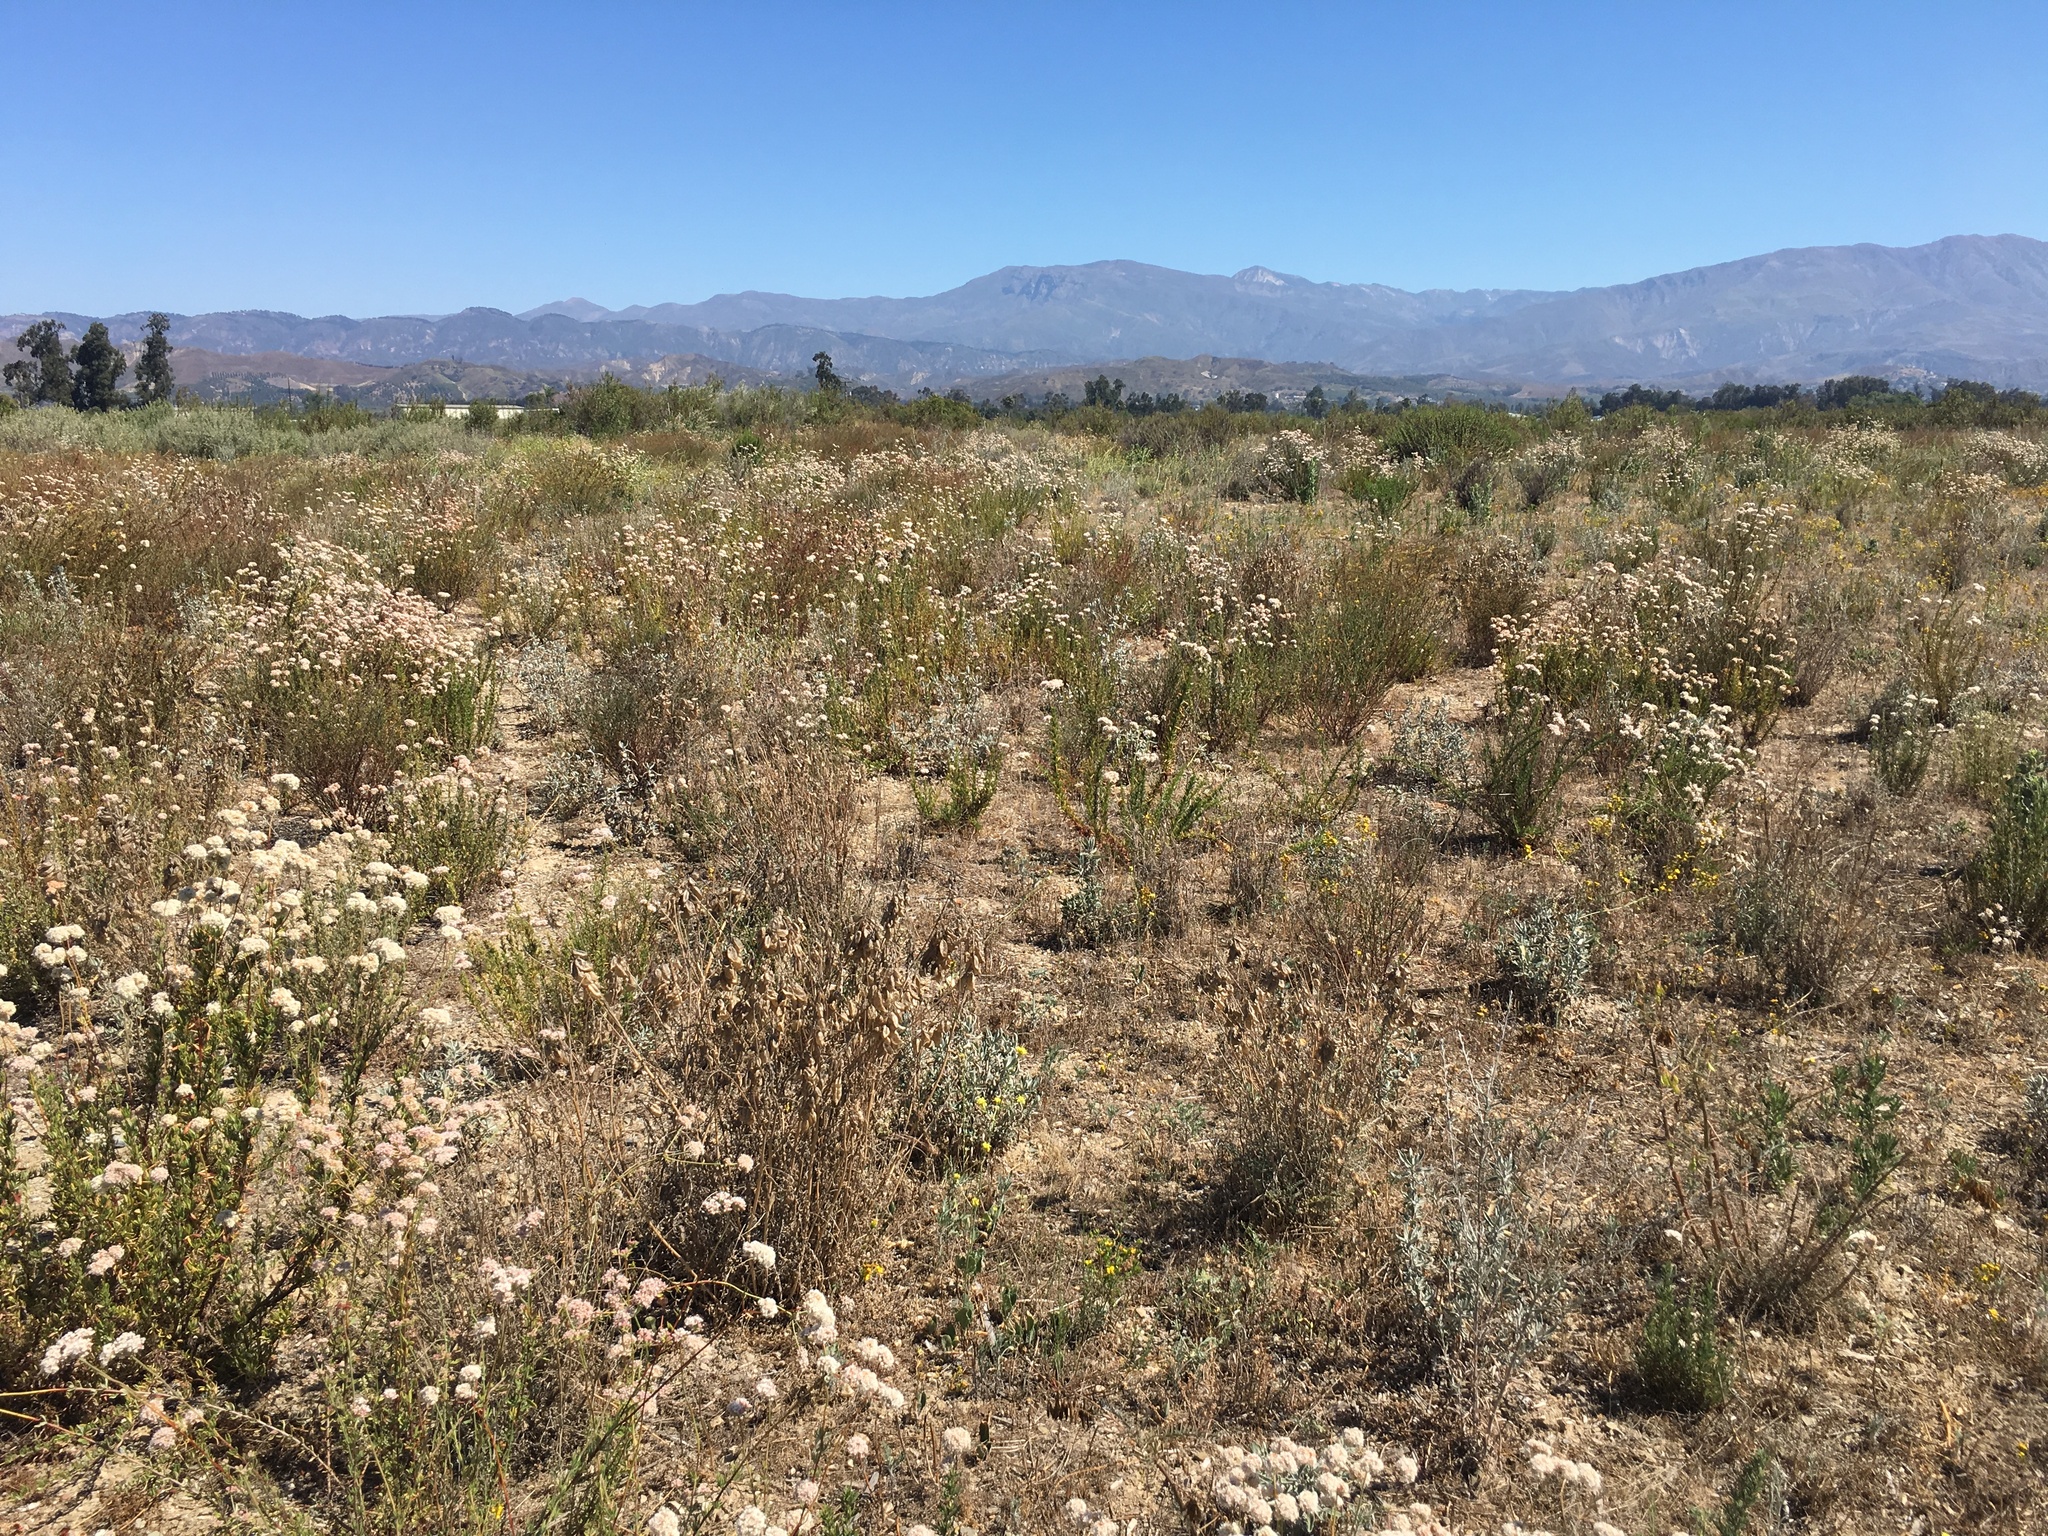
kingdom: Plantae
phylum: Tracheophyta
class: Magnoliopsida
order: Caryophyllales
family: Polygonaceae
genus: Eriogonum
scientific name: Eriogonum fasciculatum
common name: California wild buckwheat
